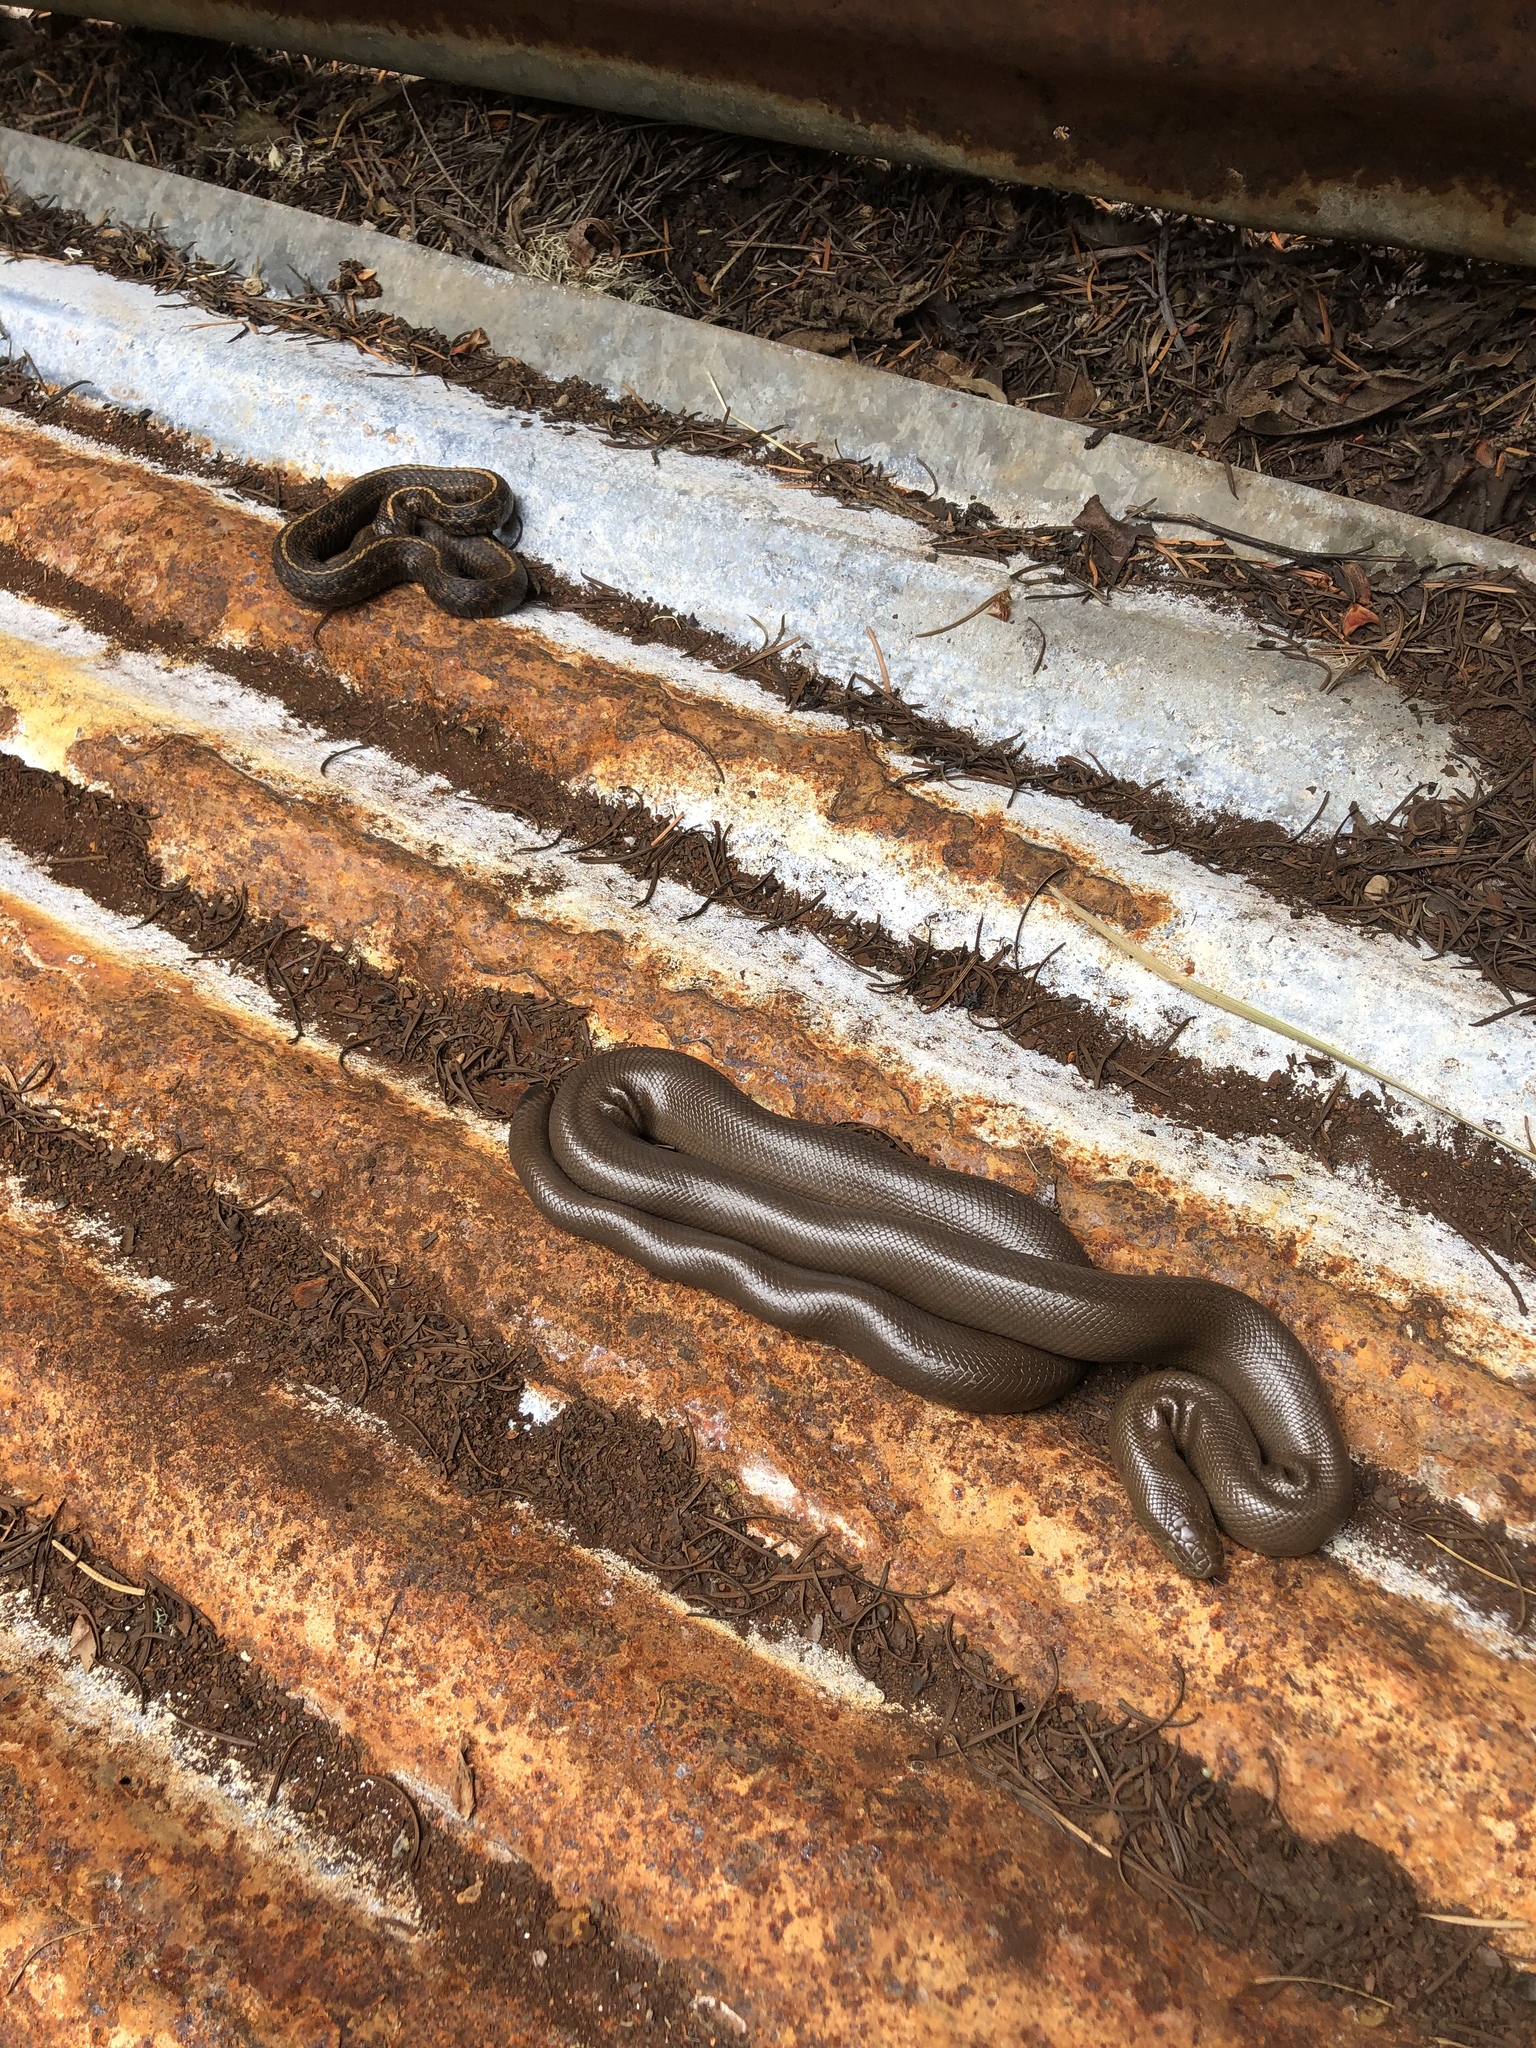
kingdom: Animalia
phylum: Chordata
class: Squamata
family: Boidae
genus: Charina
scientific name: Charina bottae
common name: Northern rubber boa
